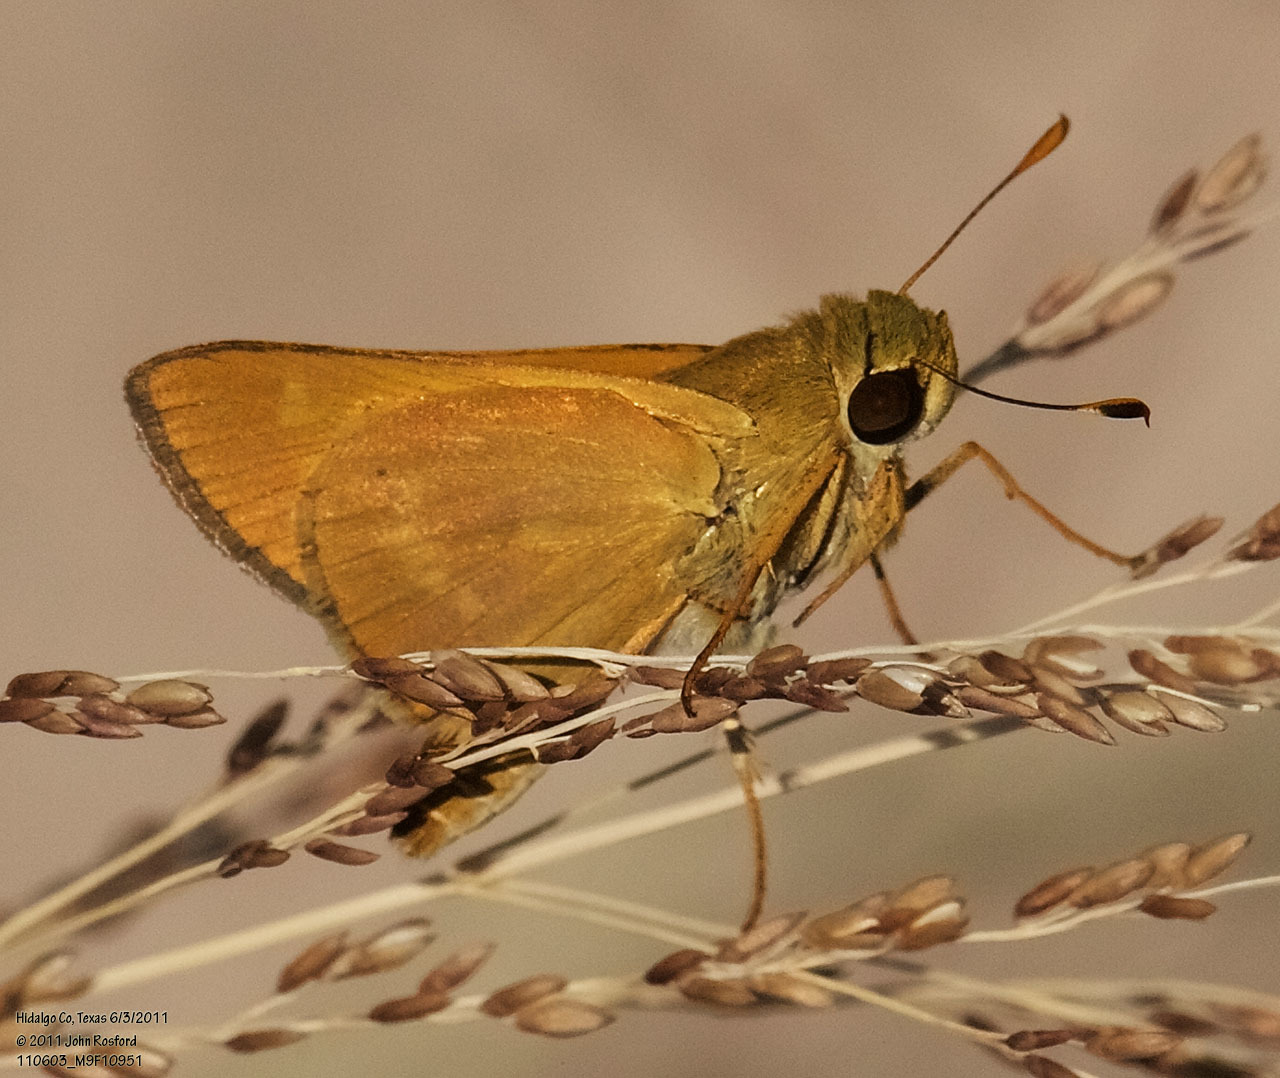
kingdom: Animalia
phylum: Arthropoda
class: Insecta
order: Lepidoptera
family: Hesperiidae
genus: Mellana
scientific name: Mellana eulogius
